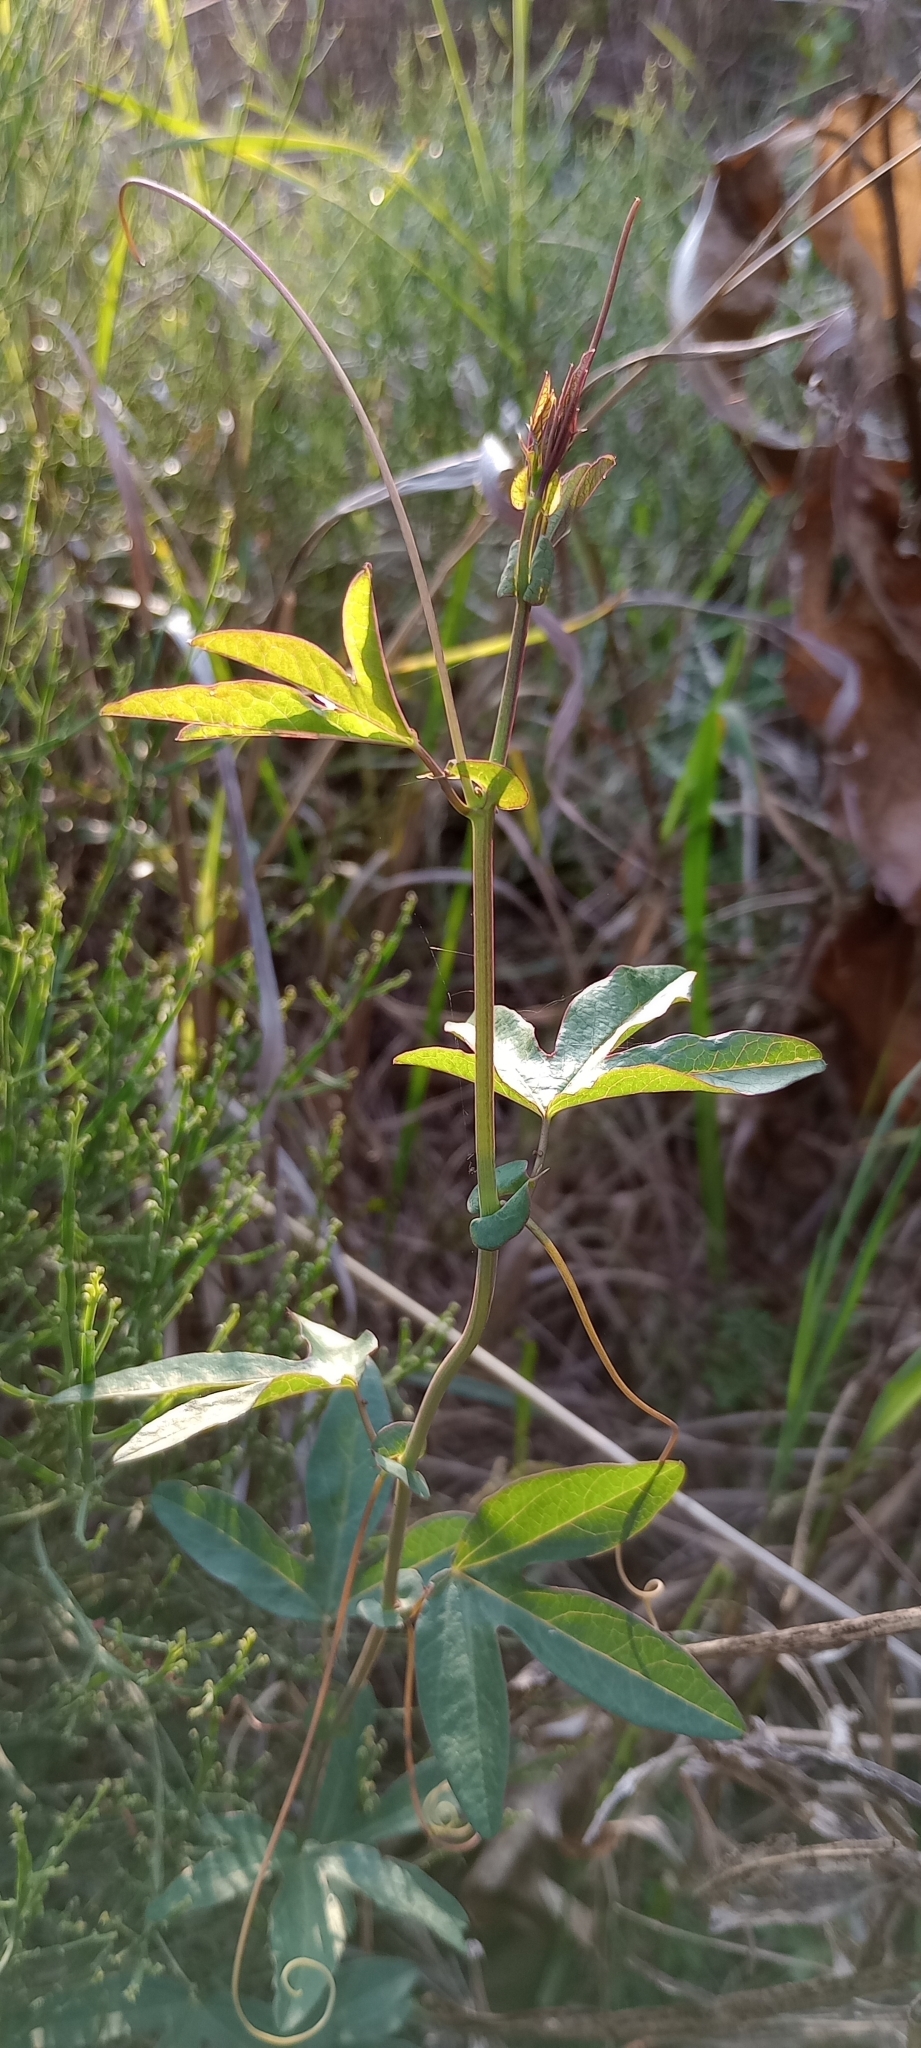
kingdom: Plantae
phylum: Tracheophyta
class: Magnoliopsida
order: Malpighiales
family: Passifloraceae
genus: Passiflora
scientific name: Passiflora caerulea
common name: Blue passionflower
